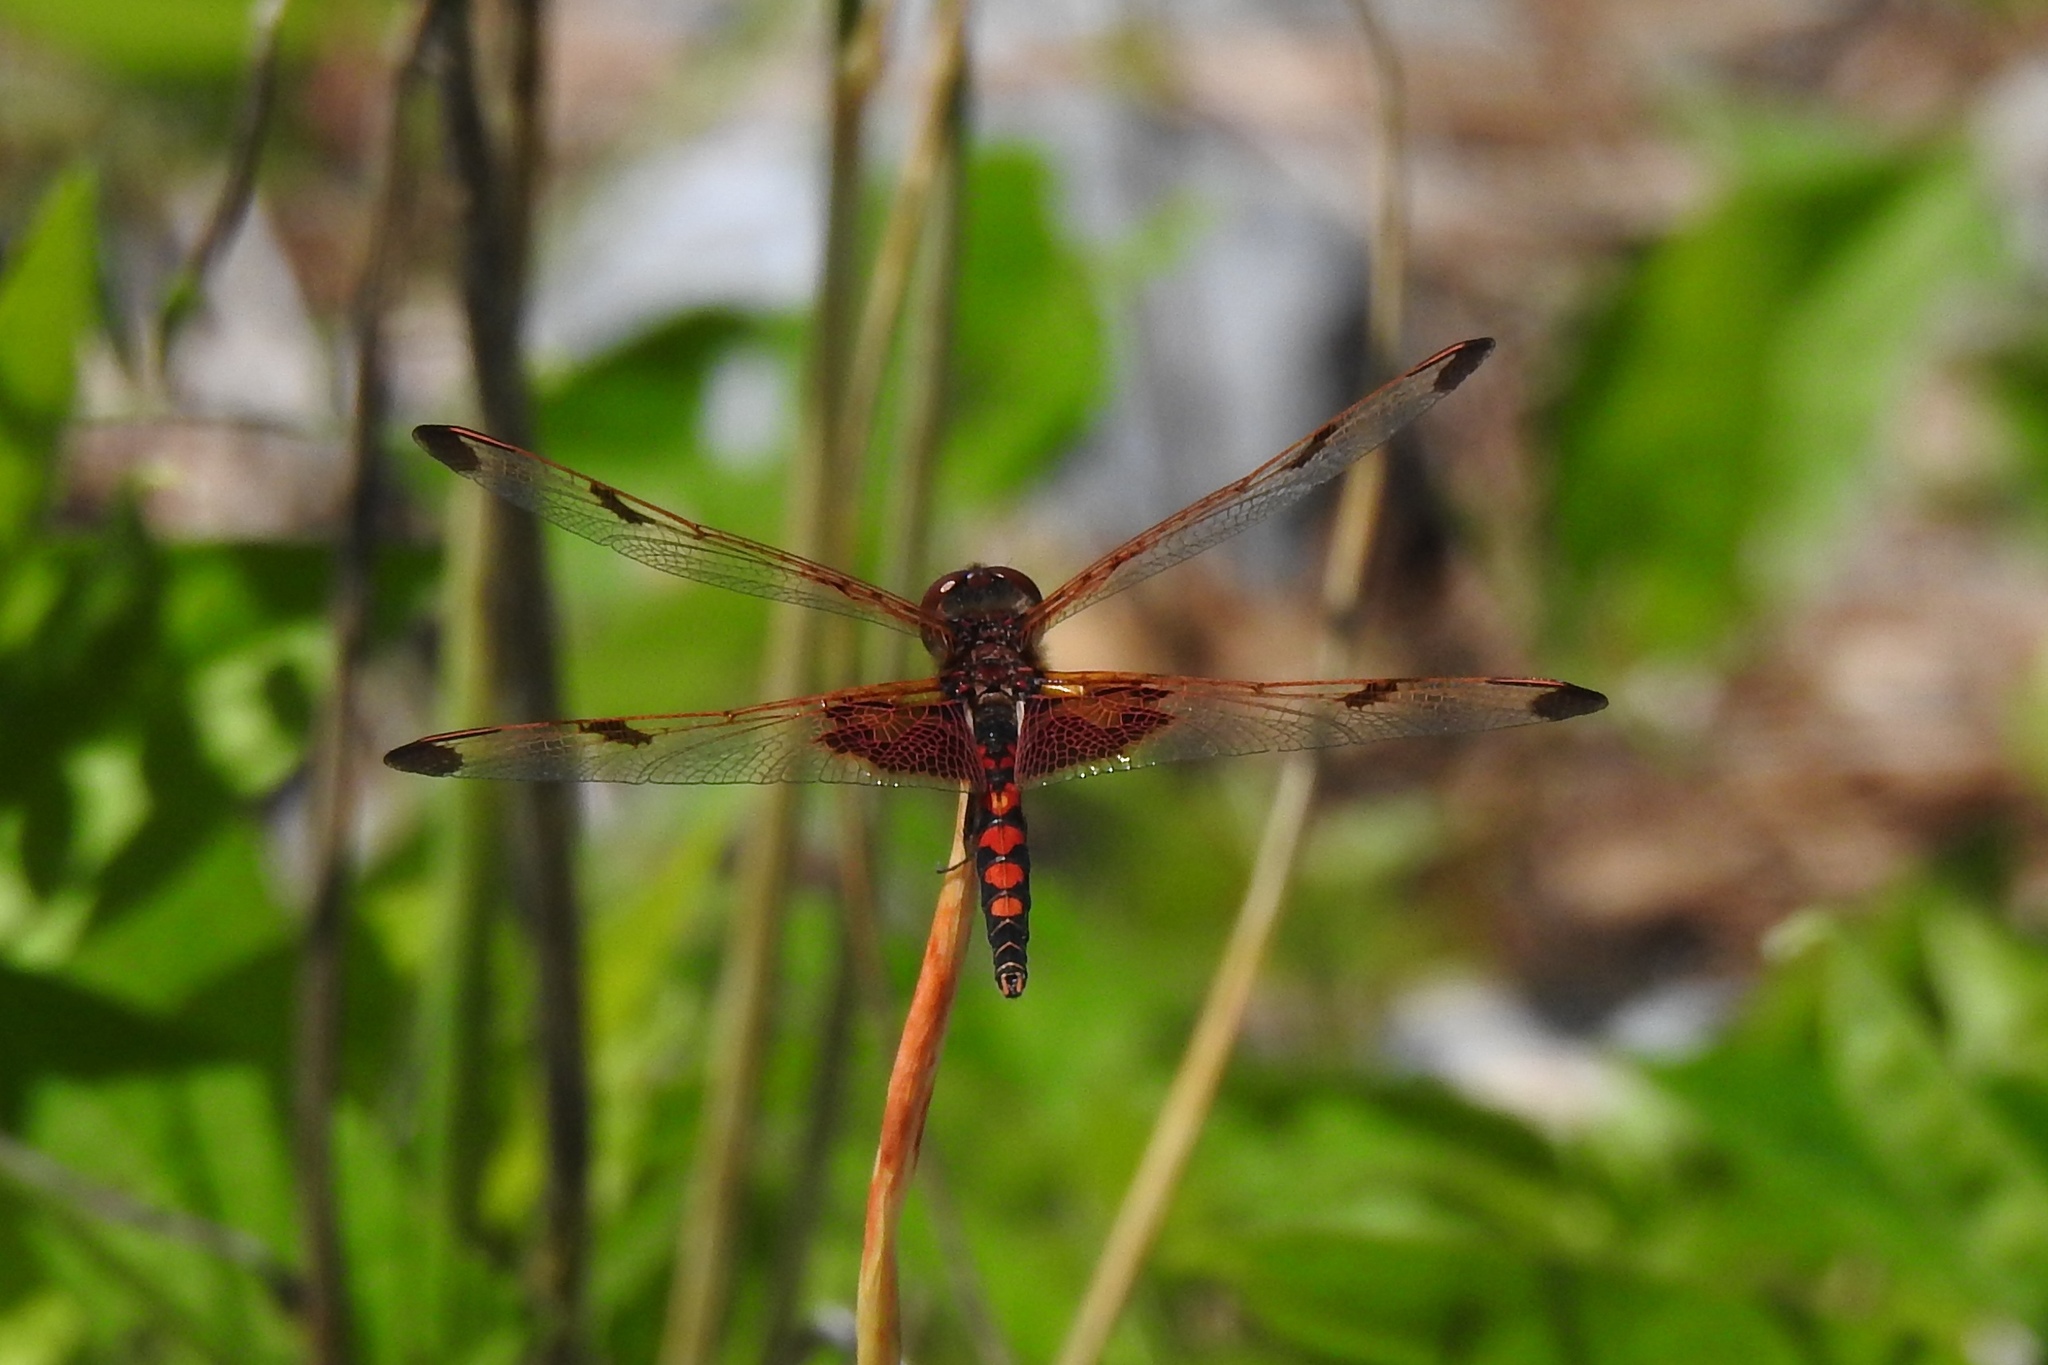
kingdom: Animalia
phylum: Arthropoda
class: Insecta
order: Odonata
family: Libellulidae
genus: Celithemis
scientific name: Celithemis elisa
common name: Calico pennant
